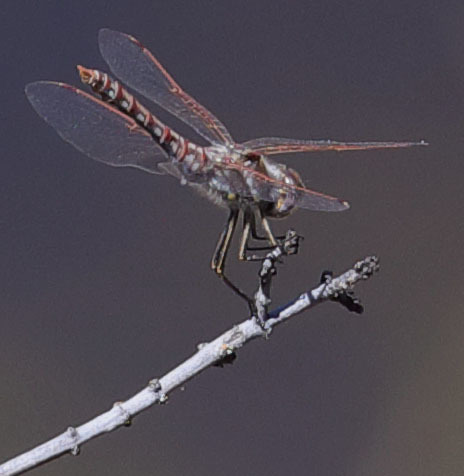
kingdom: Animalia
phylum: Arthropoda
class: Insecta
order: Odonata
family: Libellulidae
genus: Sympetrum
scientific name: Sympetrum corruptum
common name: Variegated meadowhawk
